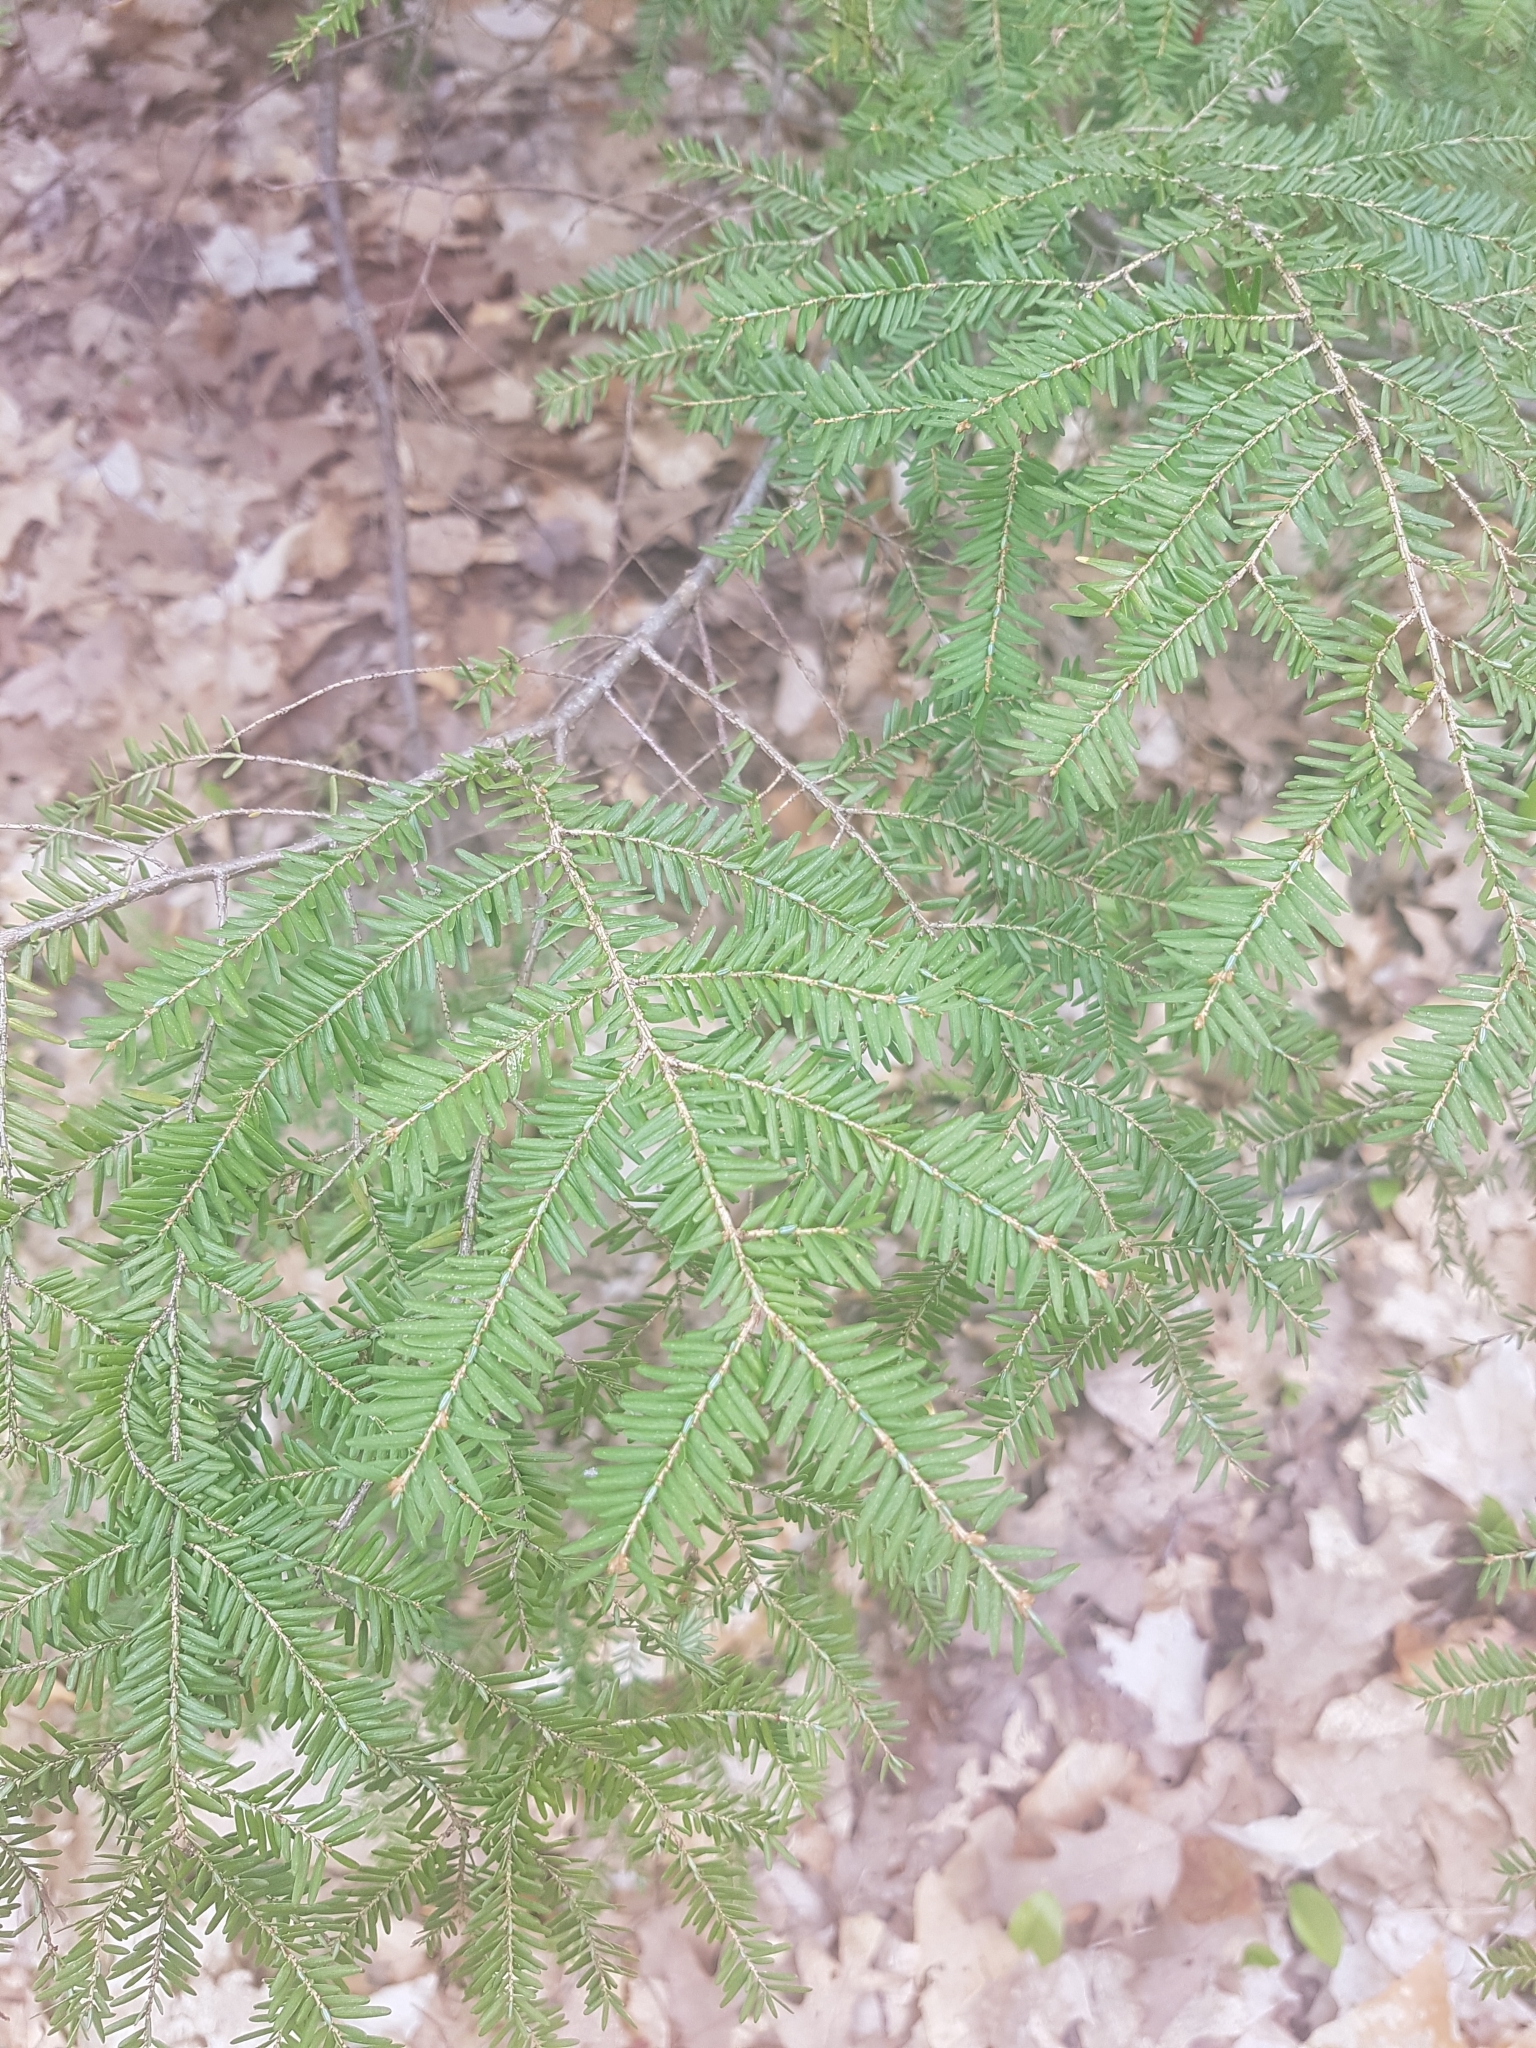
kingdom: Plantae
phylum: Tracheophyta
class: Pinopsida
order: Pinales
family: Pinaceae
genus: Tsuga
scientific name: Tsuga canadensis
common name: Eastern hemlock
